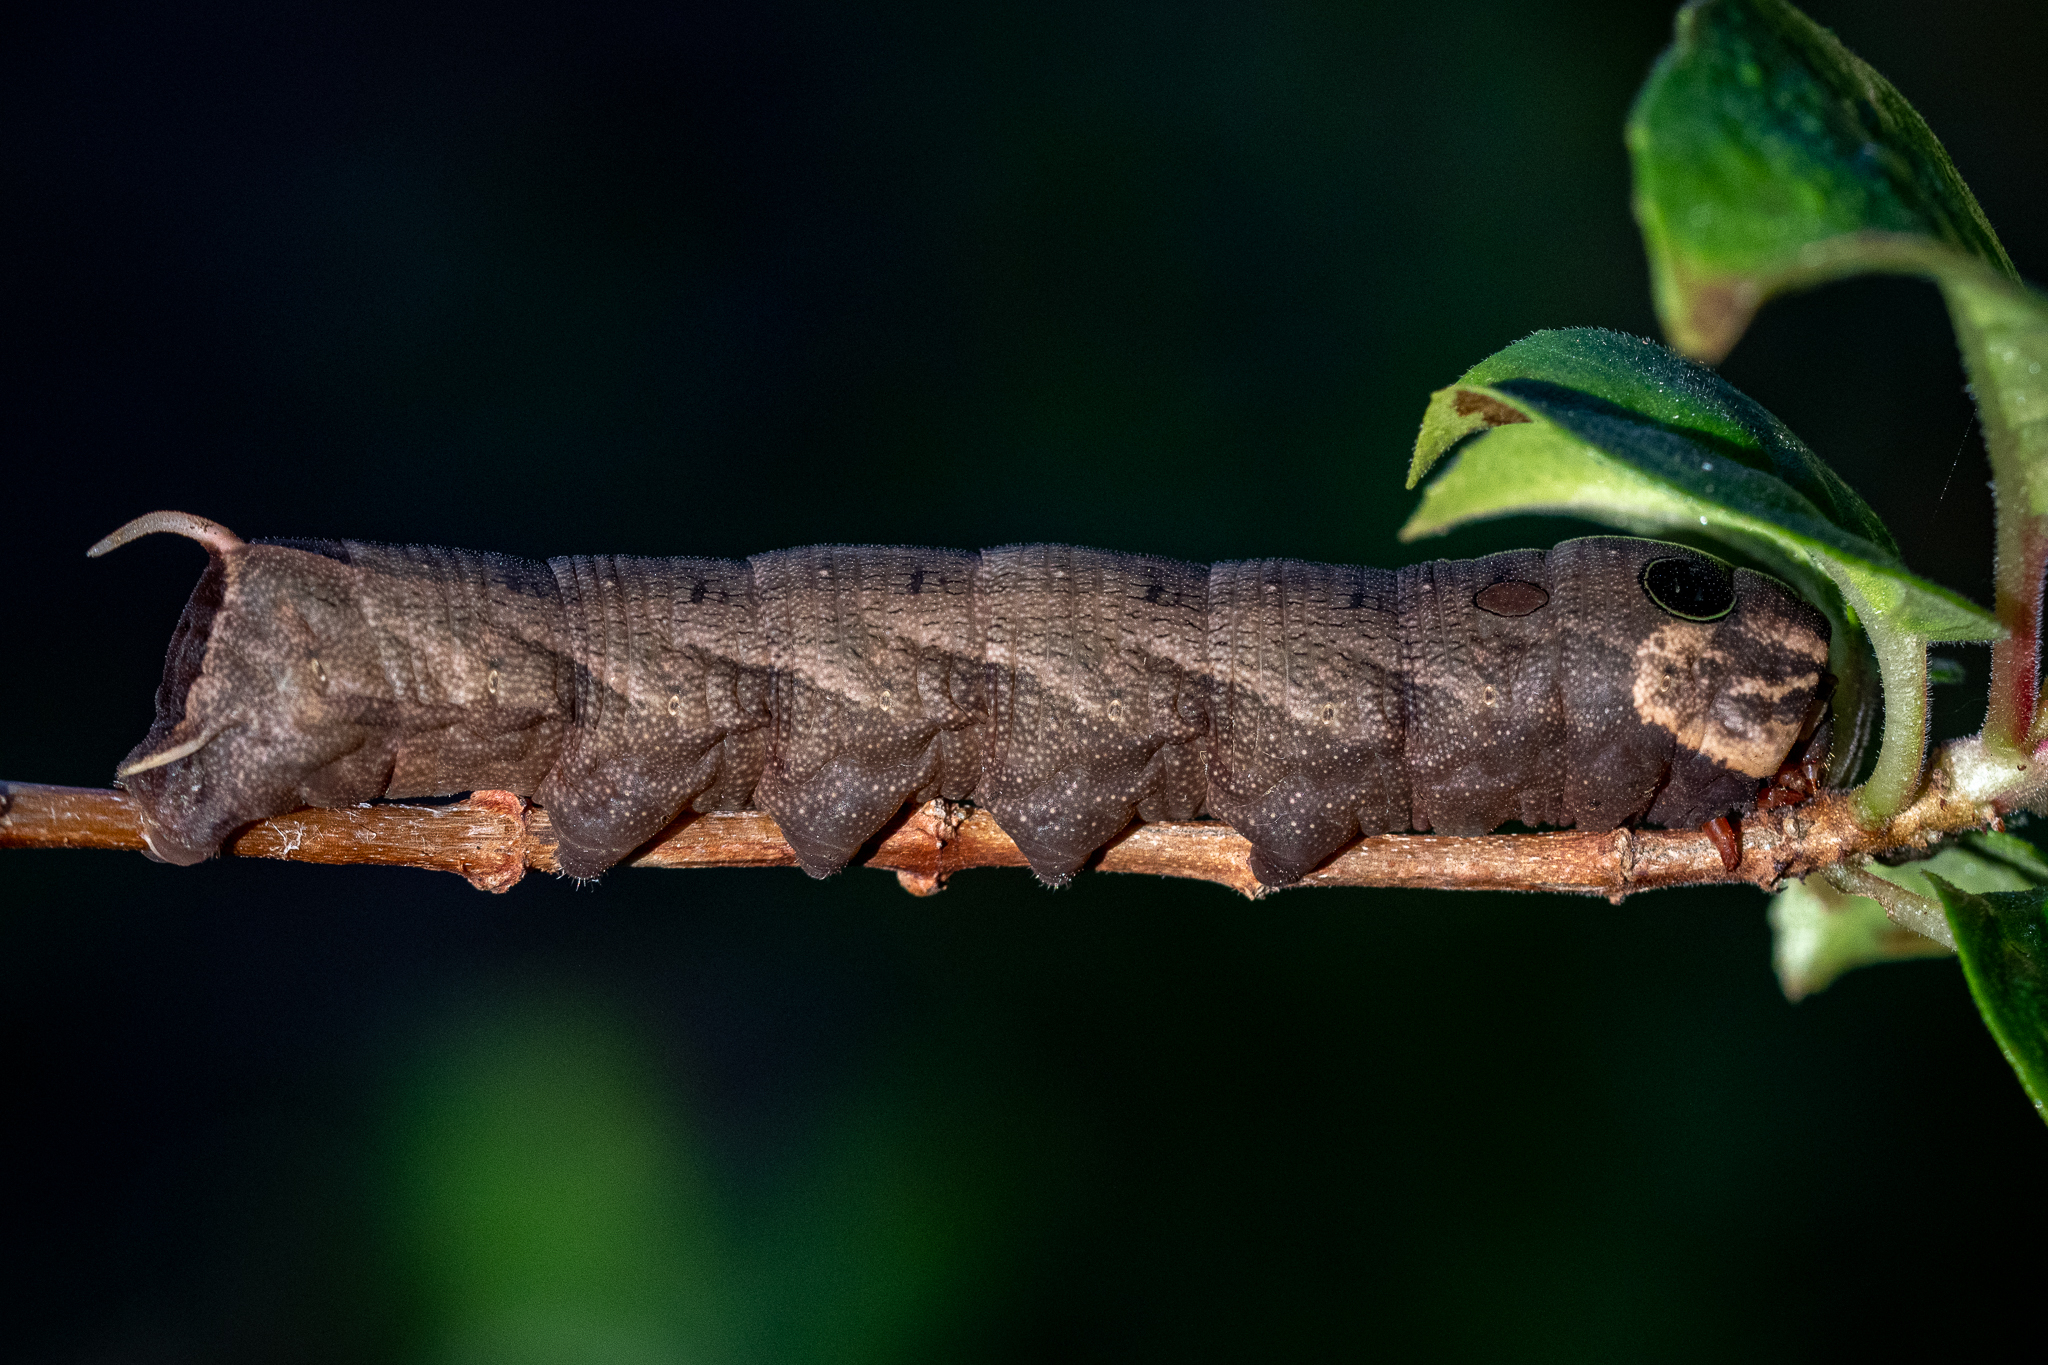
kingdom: Animalia
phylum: Arthropoda
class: Insecta
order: Lepidoptera
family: Sphingidae
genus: Hippotion
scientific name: Hippotion eson
